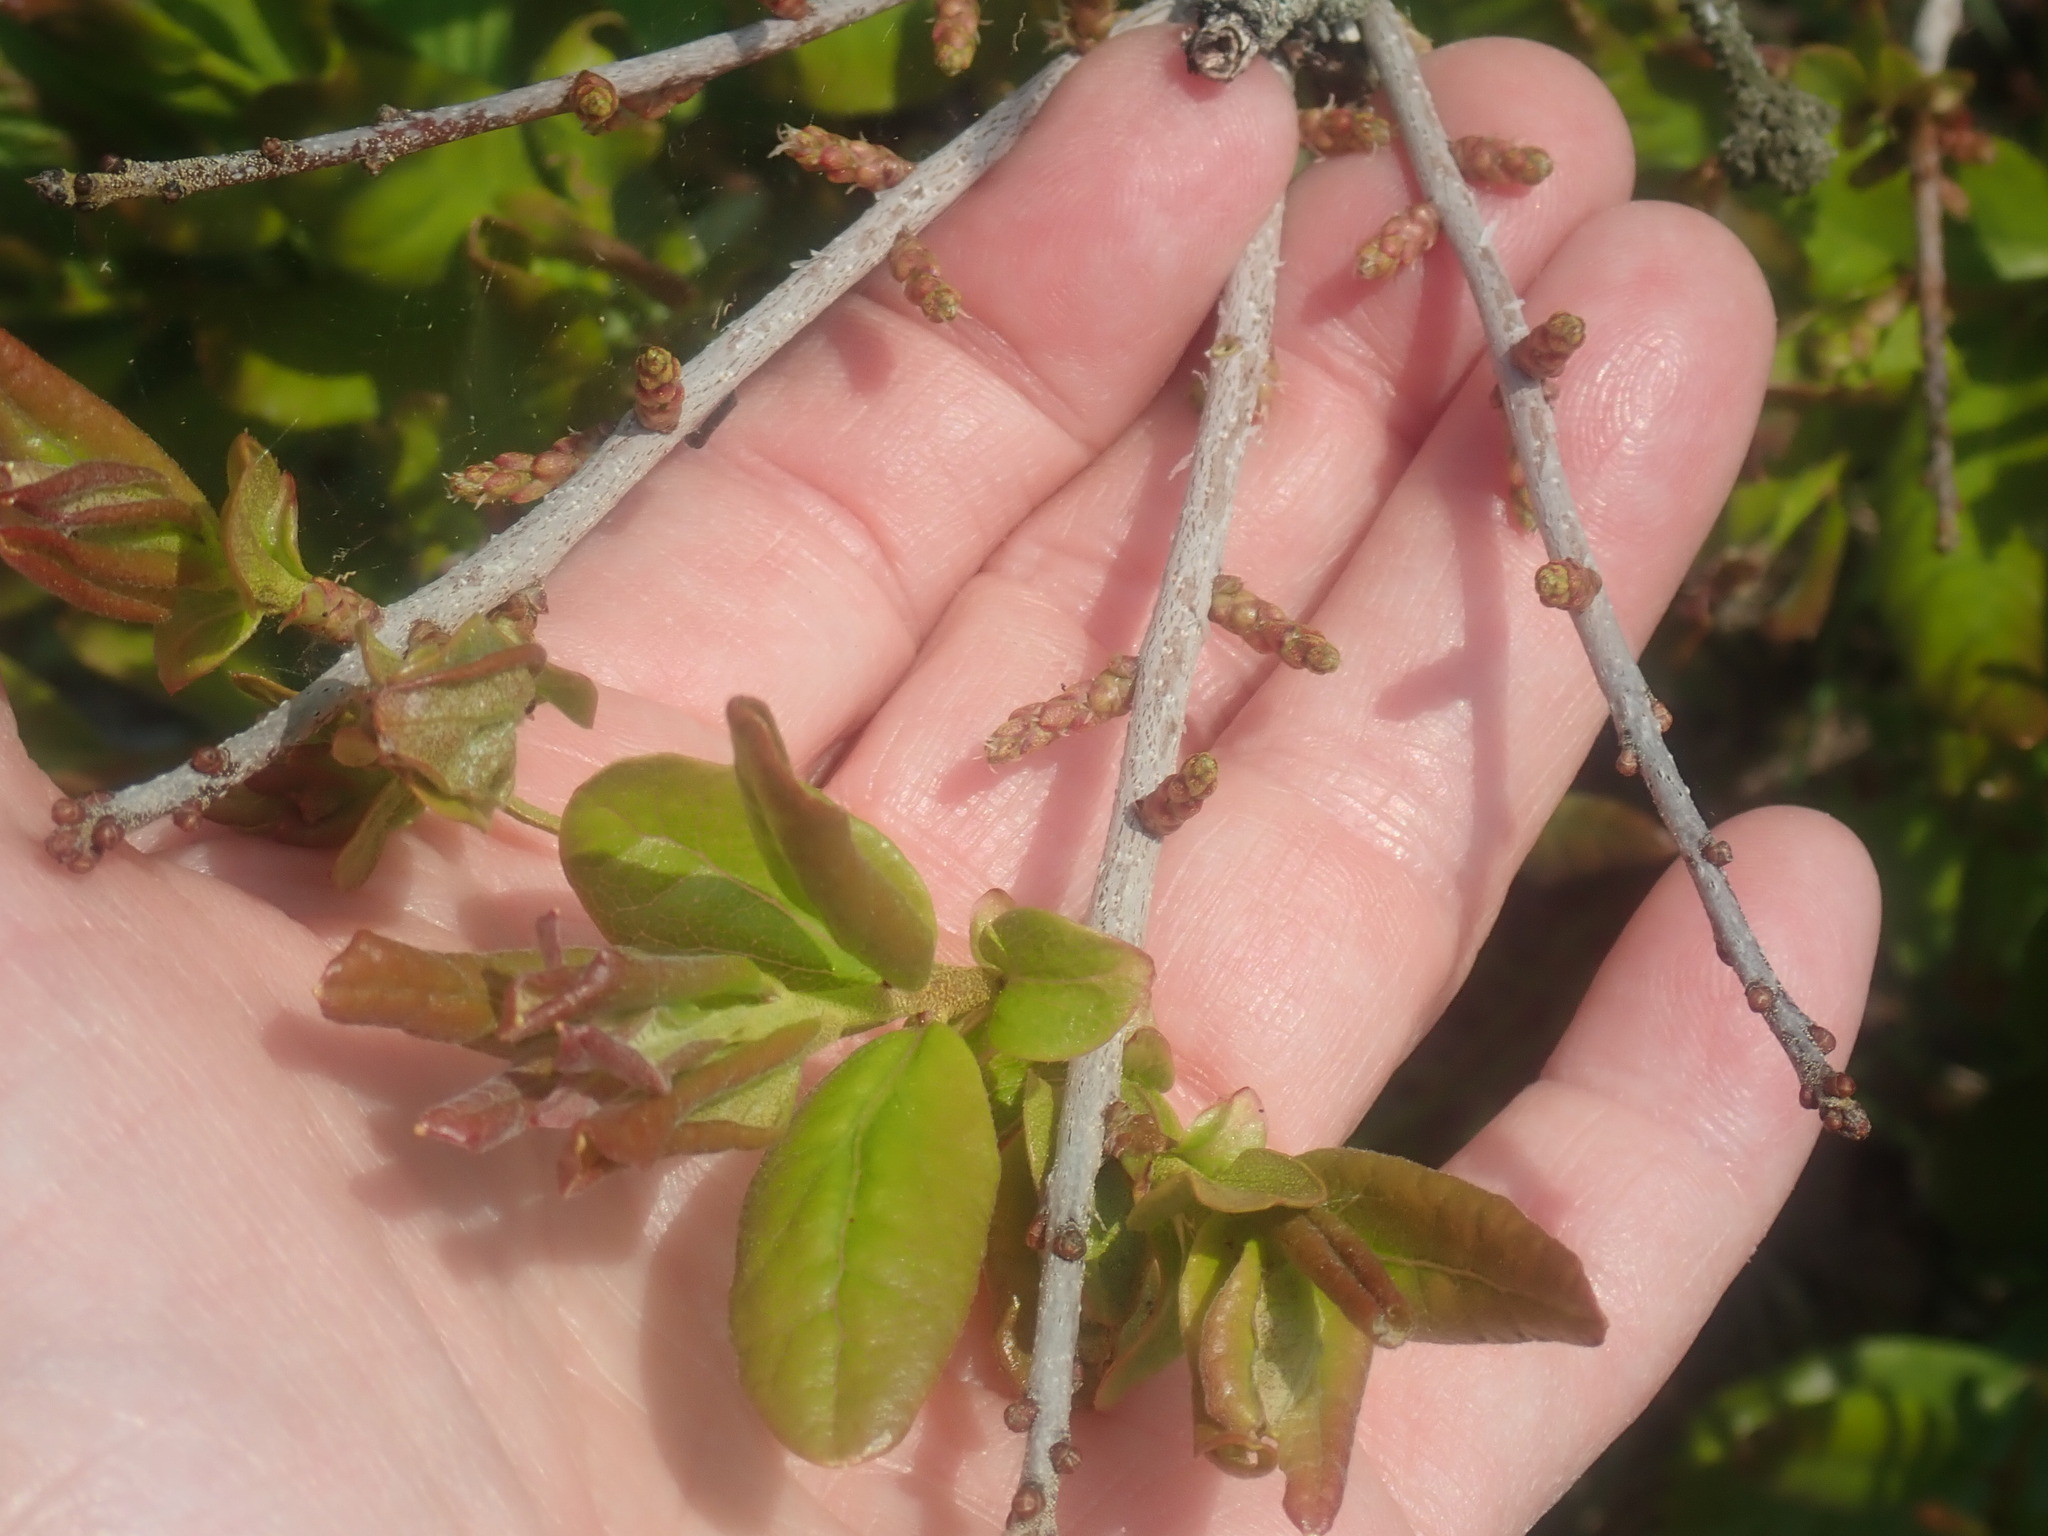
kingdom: Plantae
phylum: Tracheophyta
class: Magnoliopsida
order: Fagales
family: Myricaceae
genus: Morella
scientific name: Morella pensylvanica
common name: Northern bayberry
